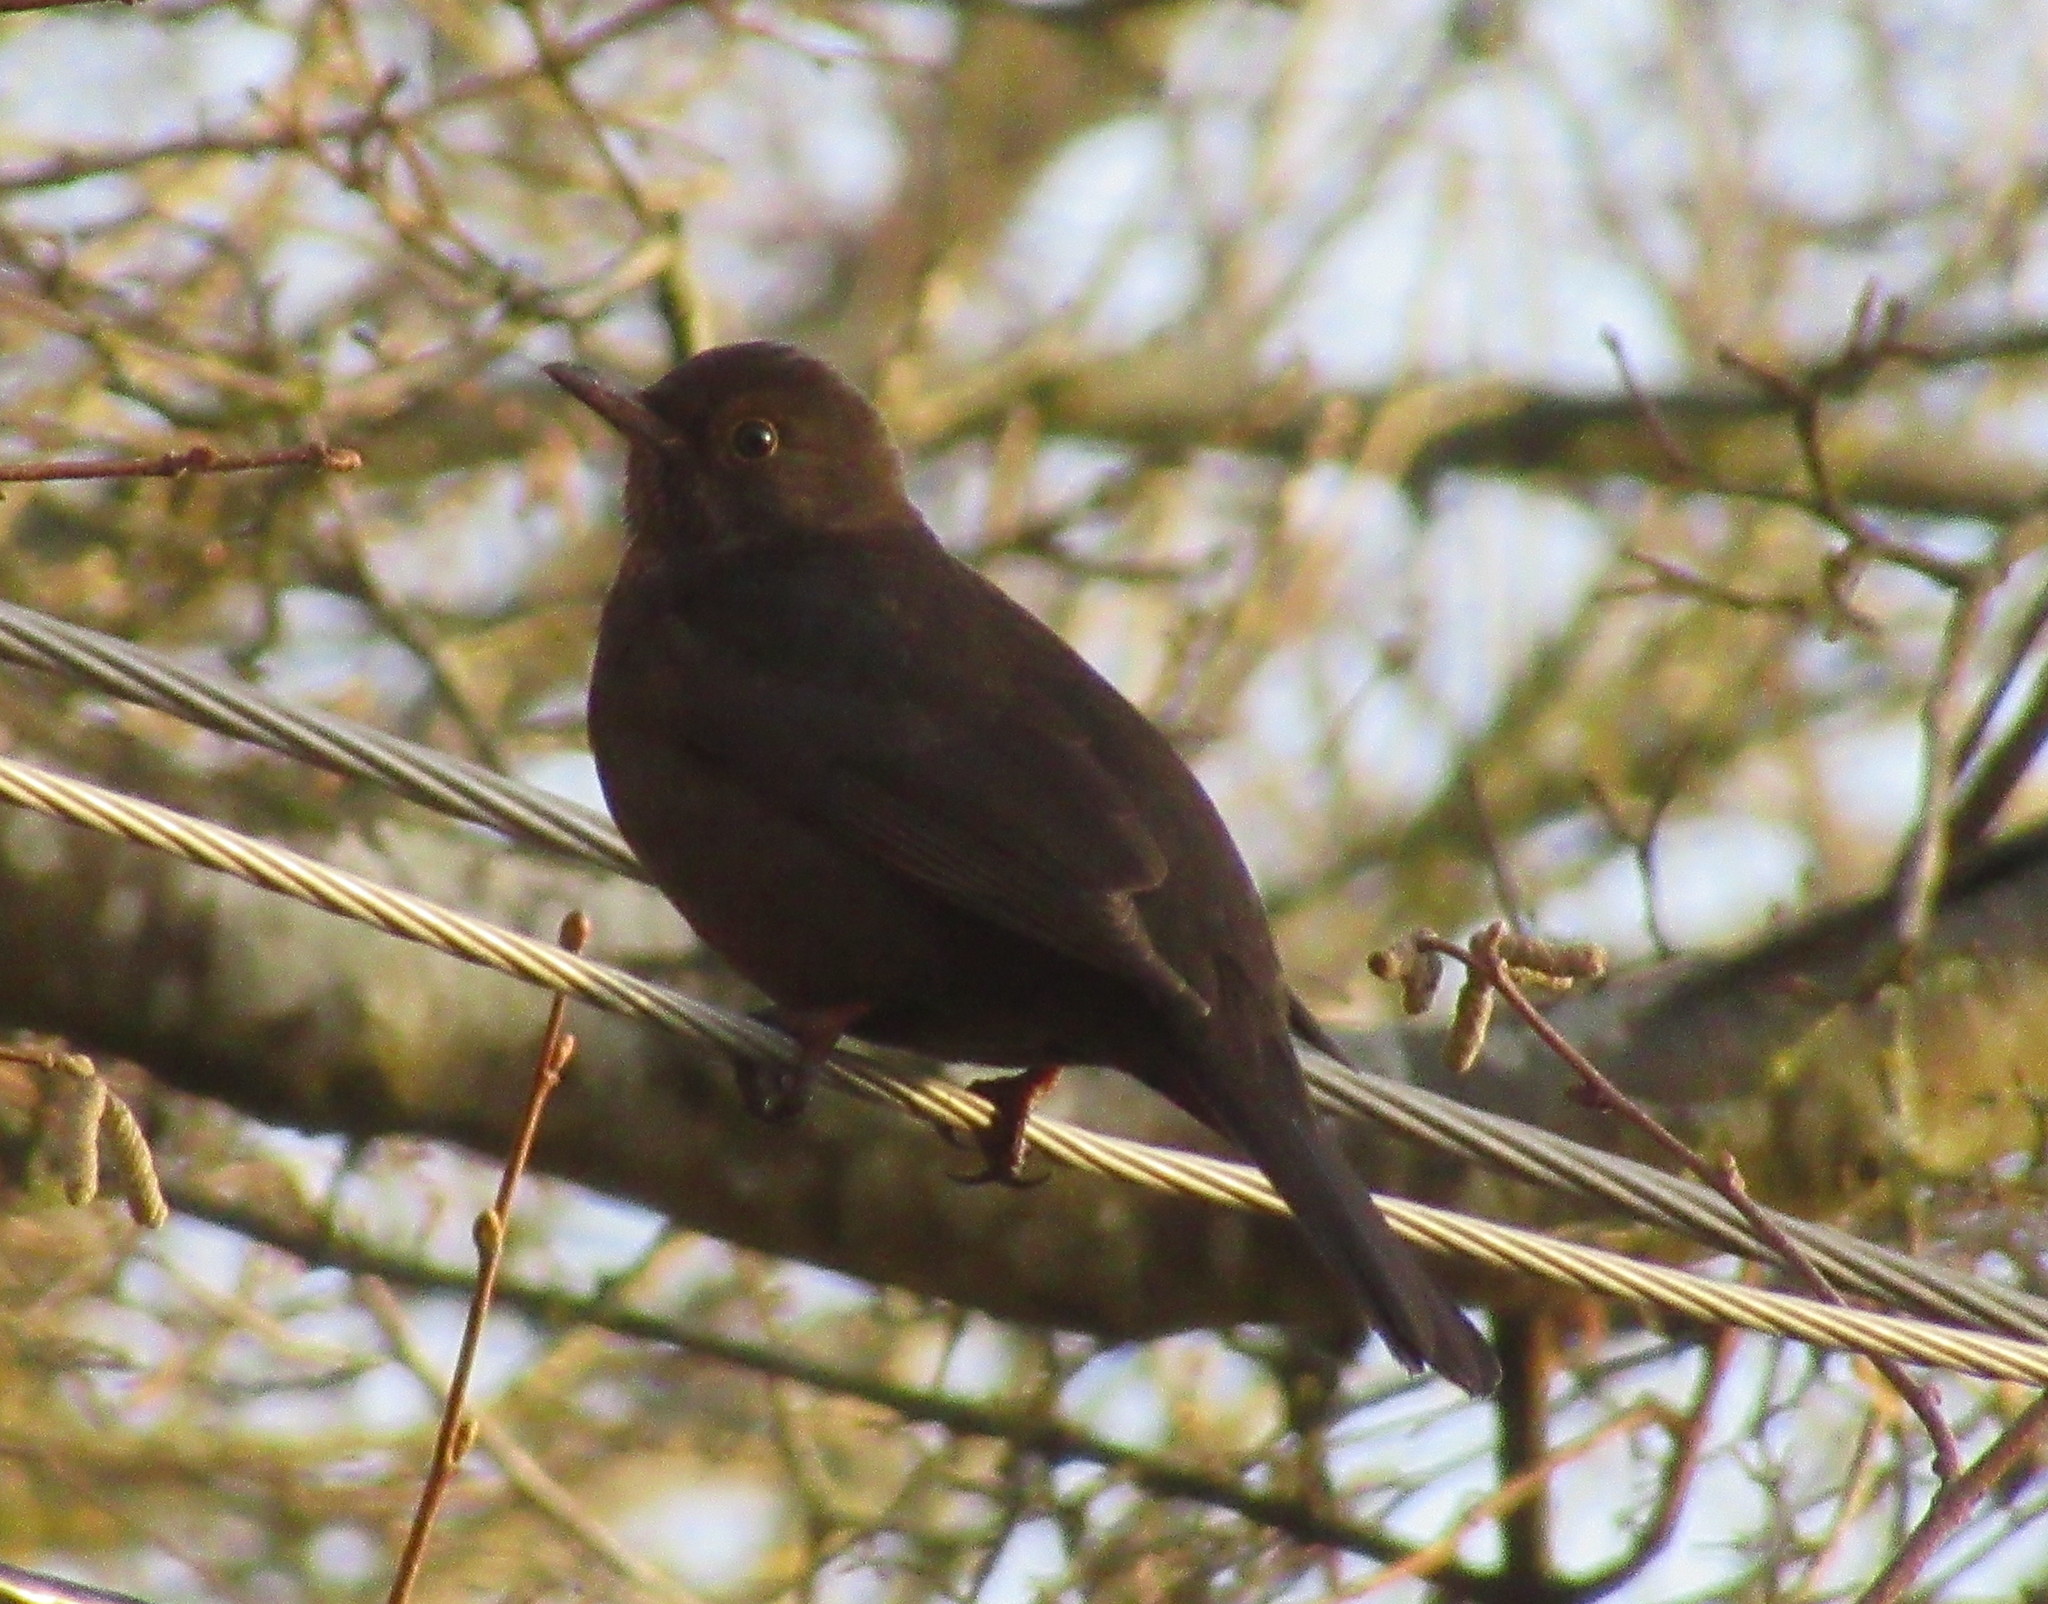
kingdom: Animalia
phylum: Chordata
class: Aves
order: Passeriformes
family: Turdidae
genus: Turdus
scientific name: Turdus merula
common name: Common blackbird
